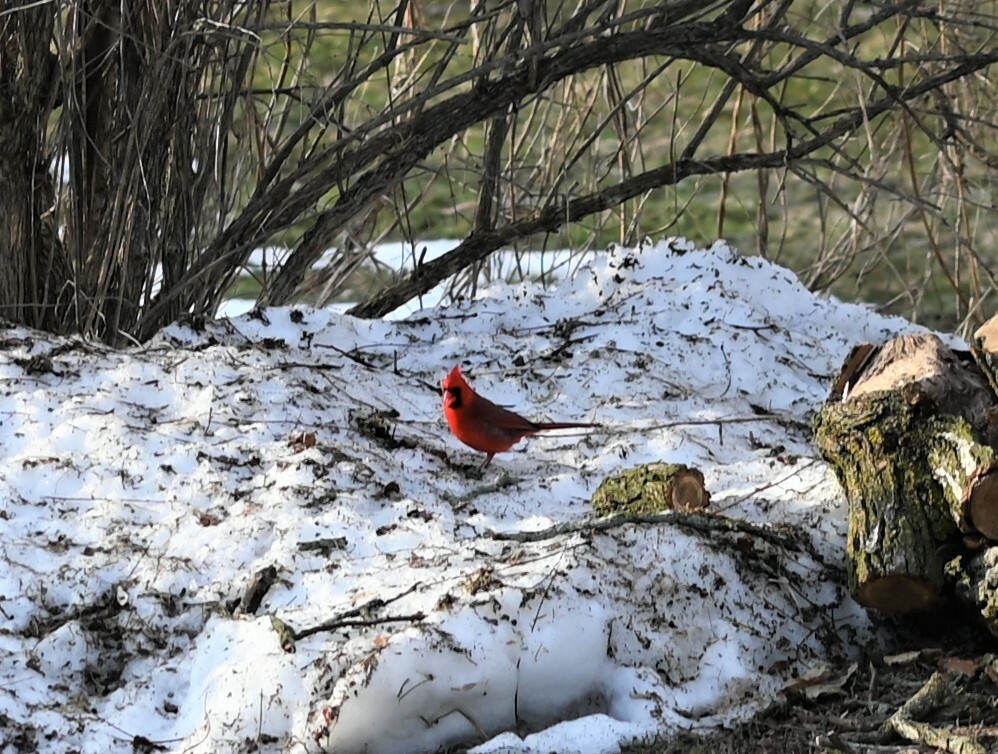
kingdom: Animalia
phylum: Chordata
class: Aves
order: Passeriformes
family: Cardinalidae
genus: Cardinalis
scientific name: Cardinalis cardinalis
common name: Northern cardinal
